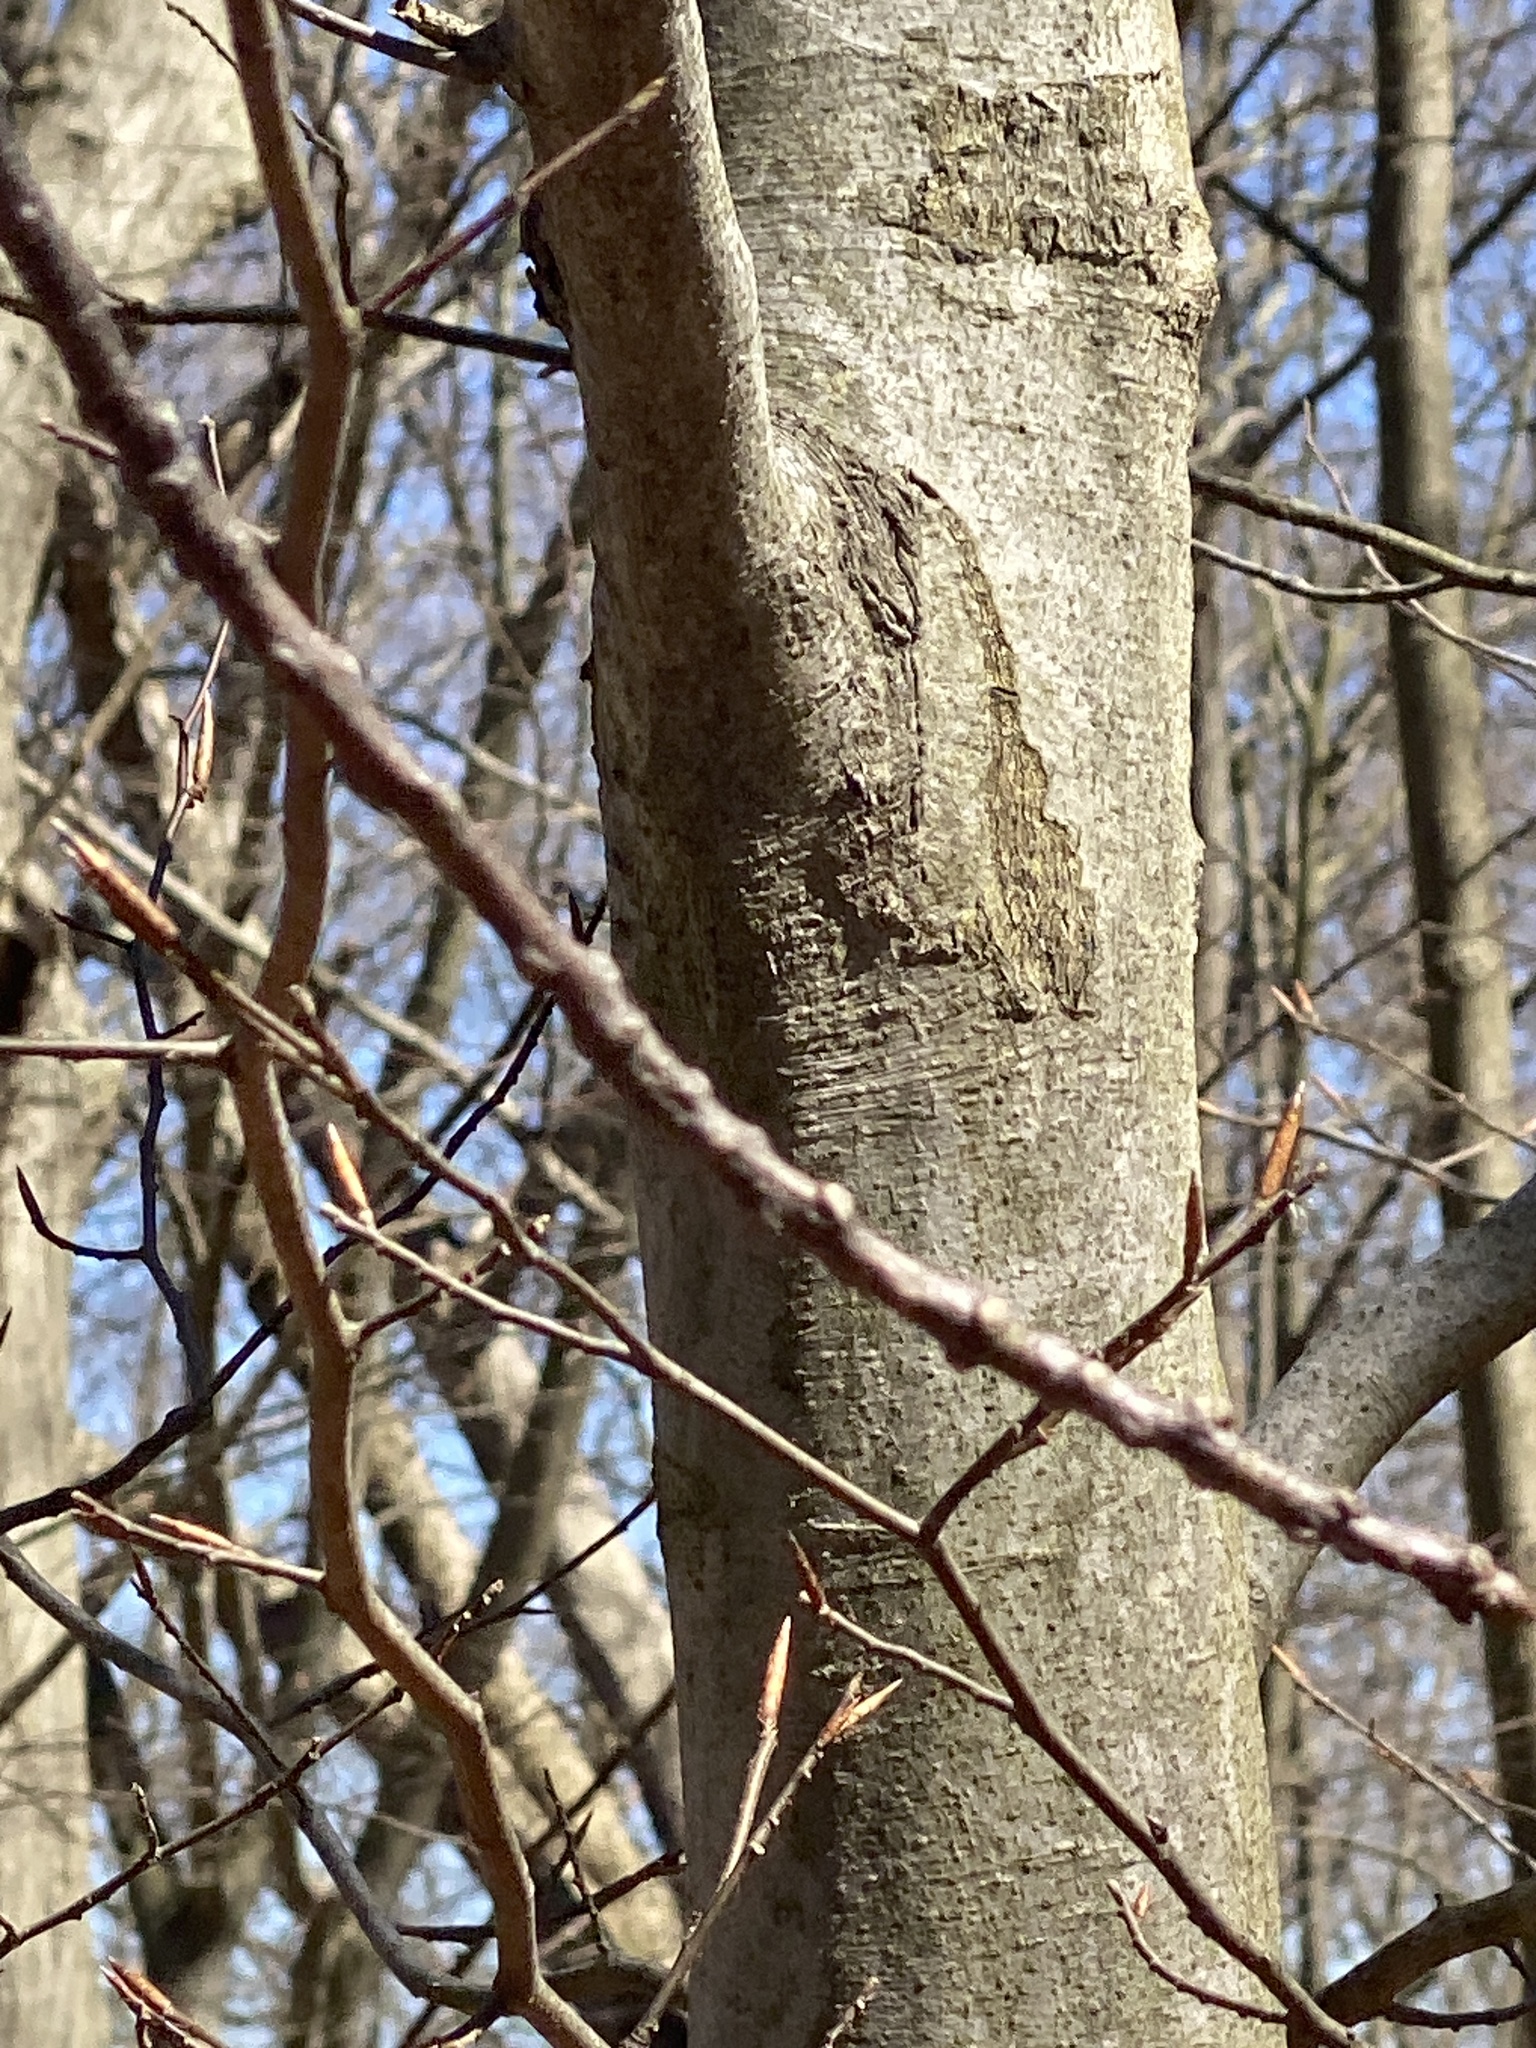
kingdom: Plantae
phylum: Tracheophyta
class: Magnoliopsida
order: Fagales
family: Fagaceae
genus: Fagus
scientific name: Fagus grandifolia
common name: American beech
